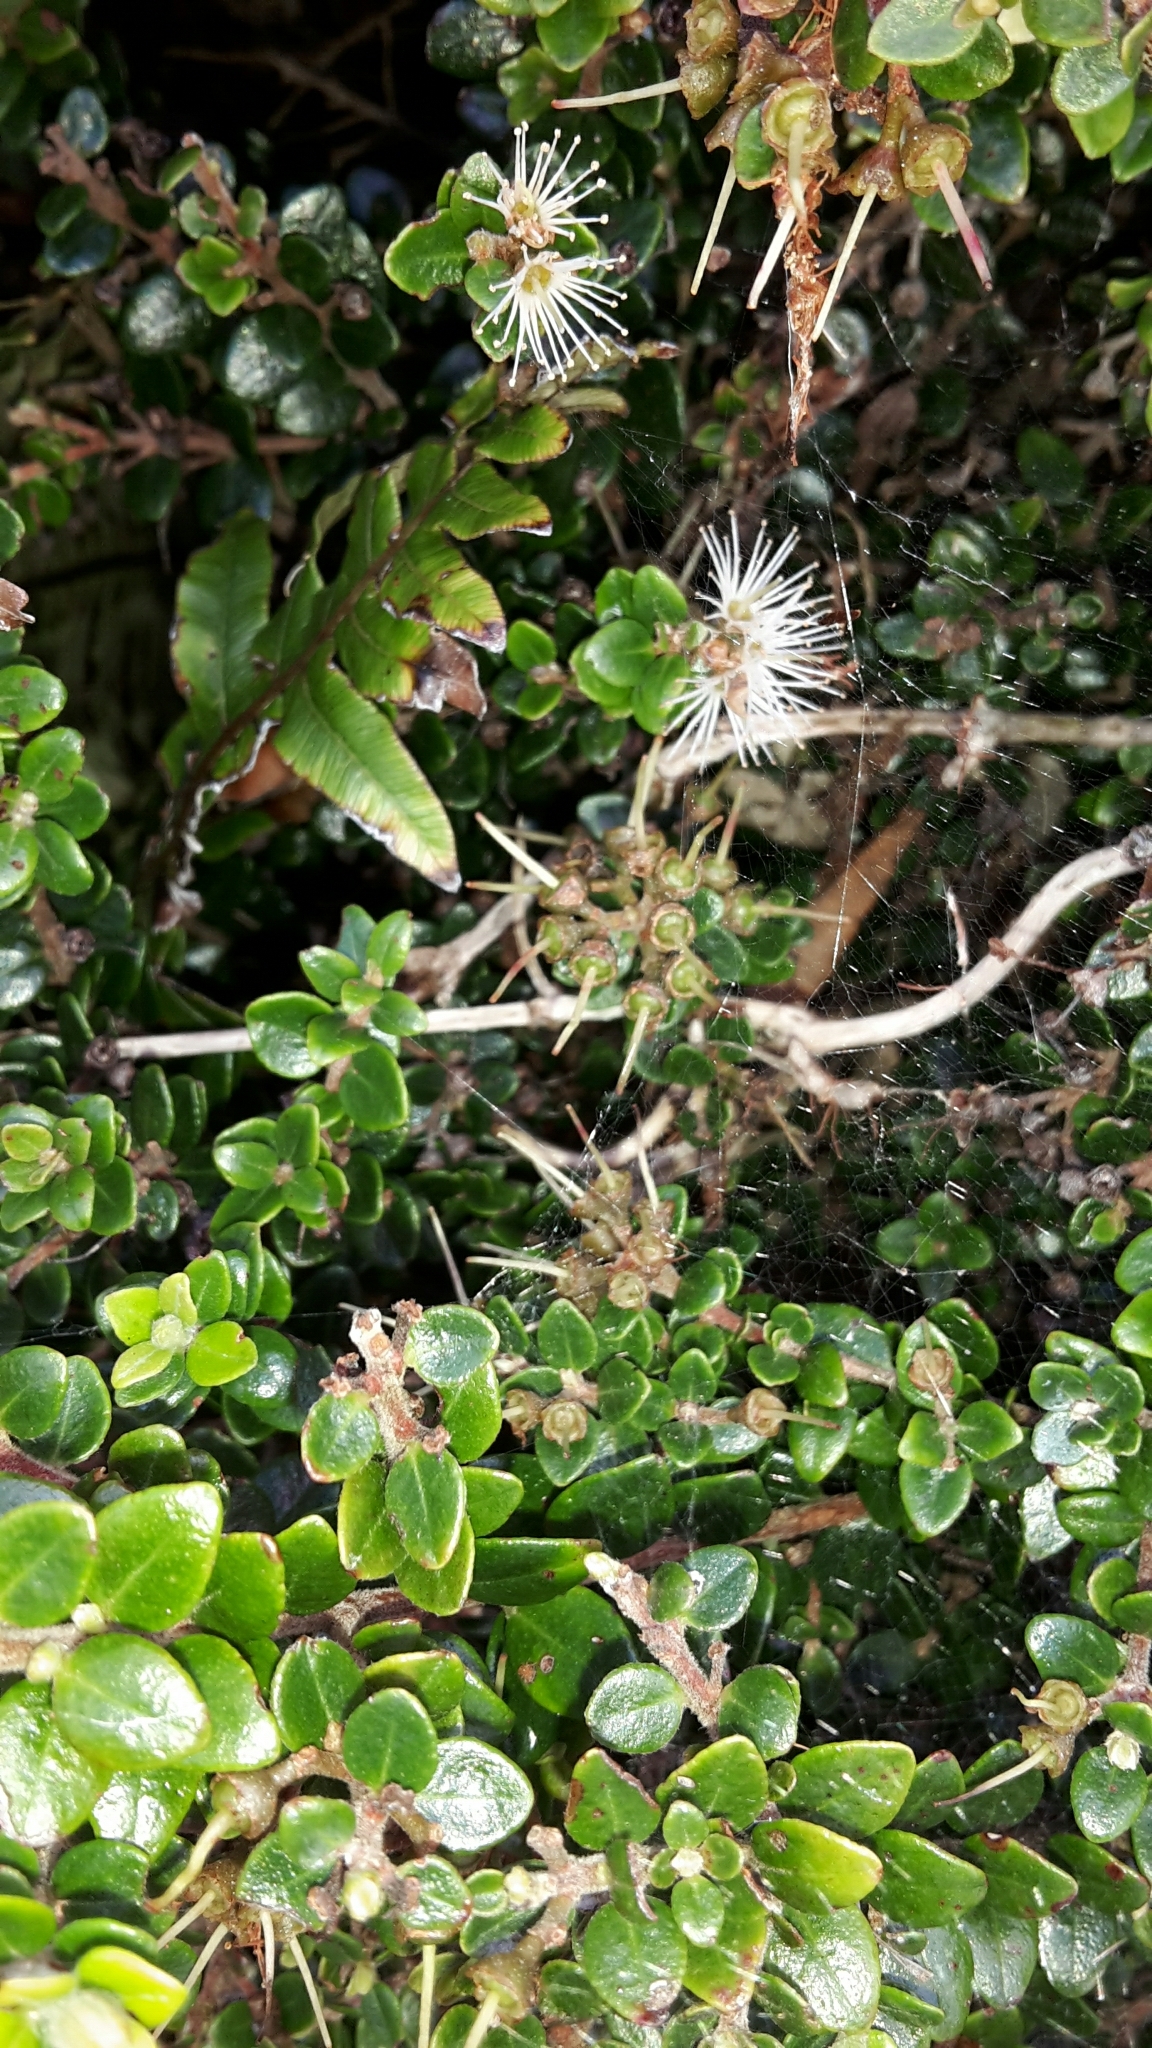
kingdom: Plantae
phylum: Tracheophyta
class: Magnoliopsida
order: Myrtales
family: Myrtaceae
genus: Metrosideros
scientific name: Metrosideros perforata
